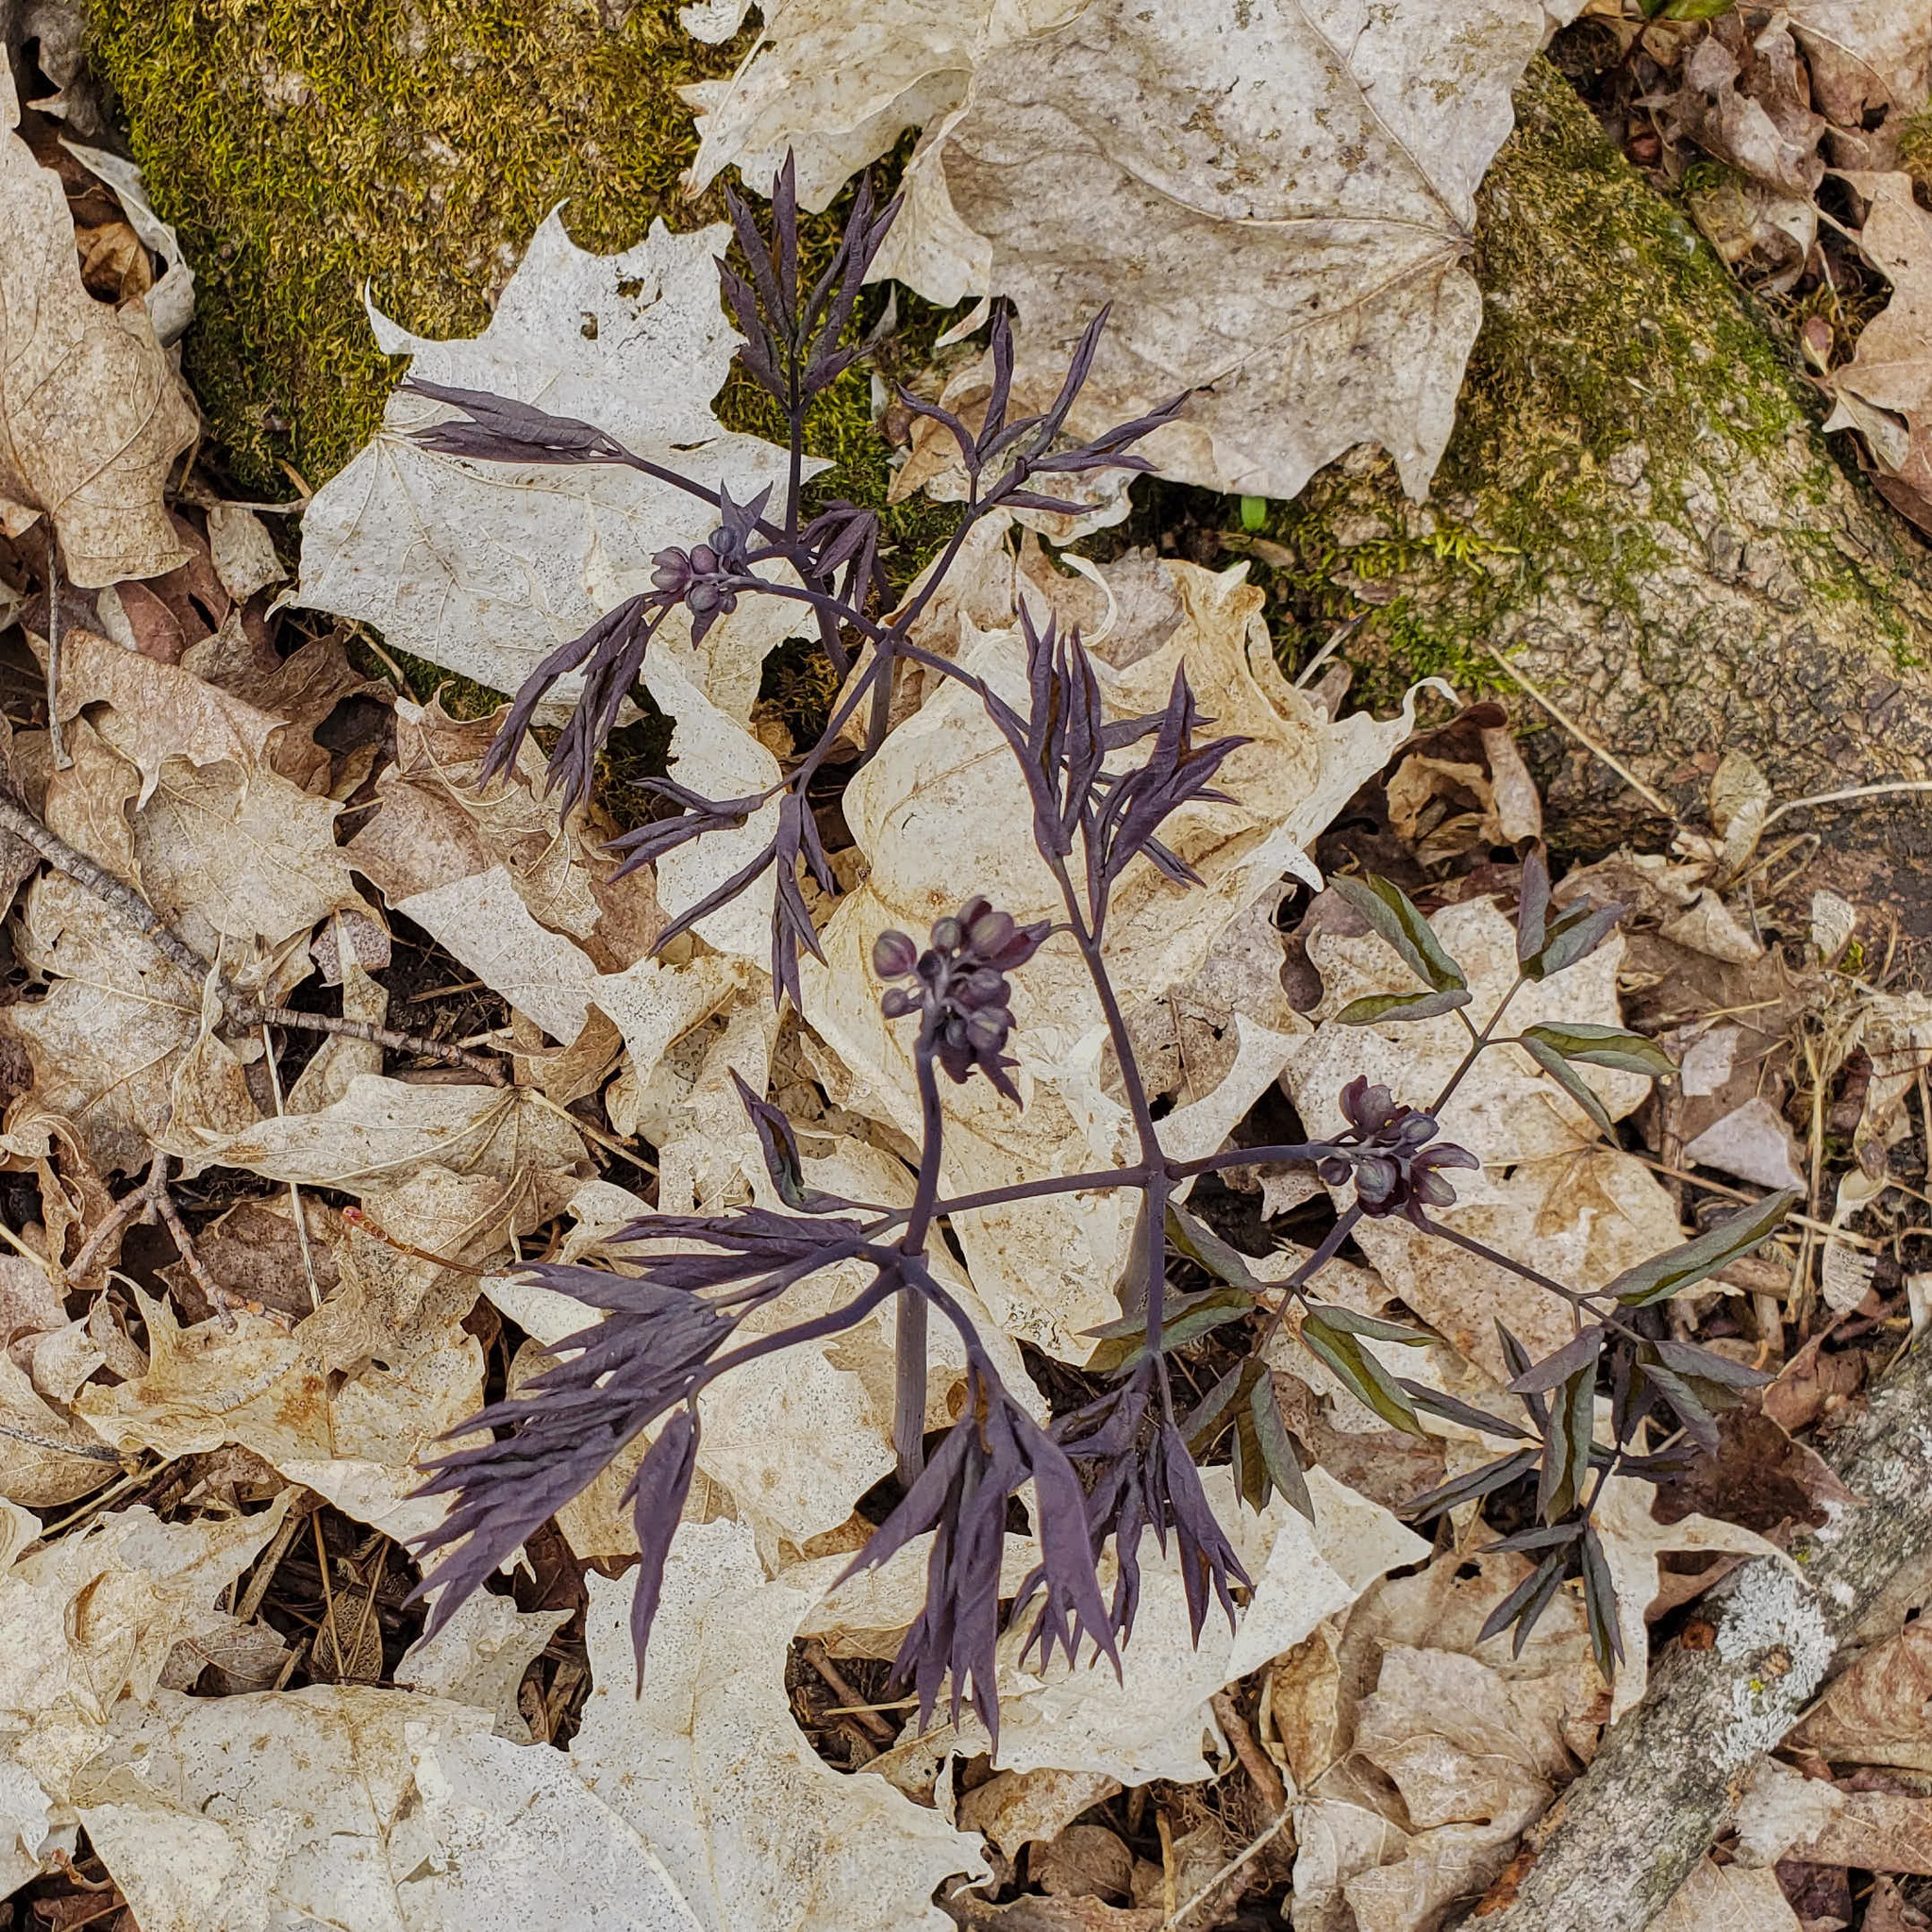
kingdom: Plantae
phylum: Tracheophyta
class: Magnoliopsida
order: Ranunculales
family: Berberidaceae
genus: Caulophyllum
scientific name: Caulophyllum giganteum
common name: Blue cohosh
